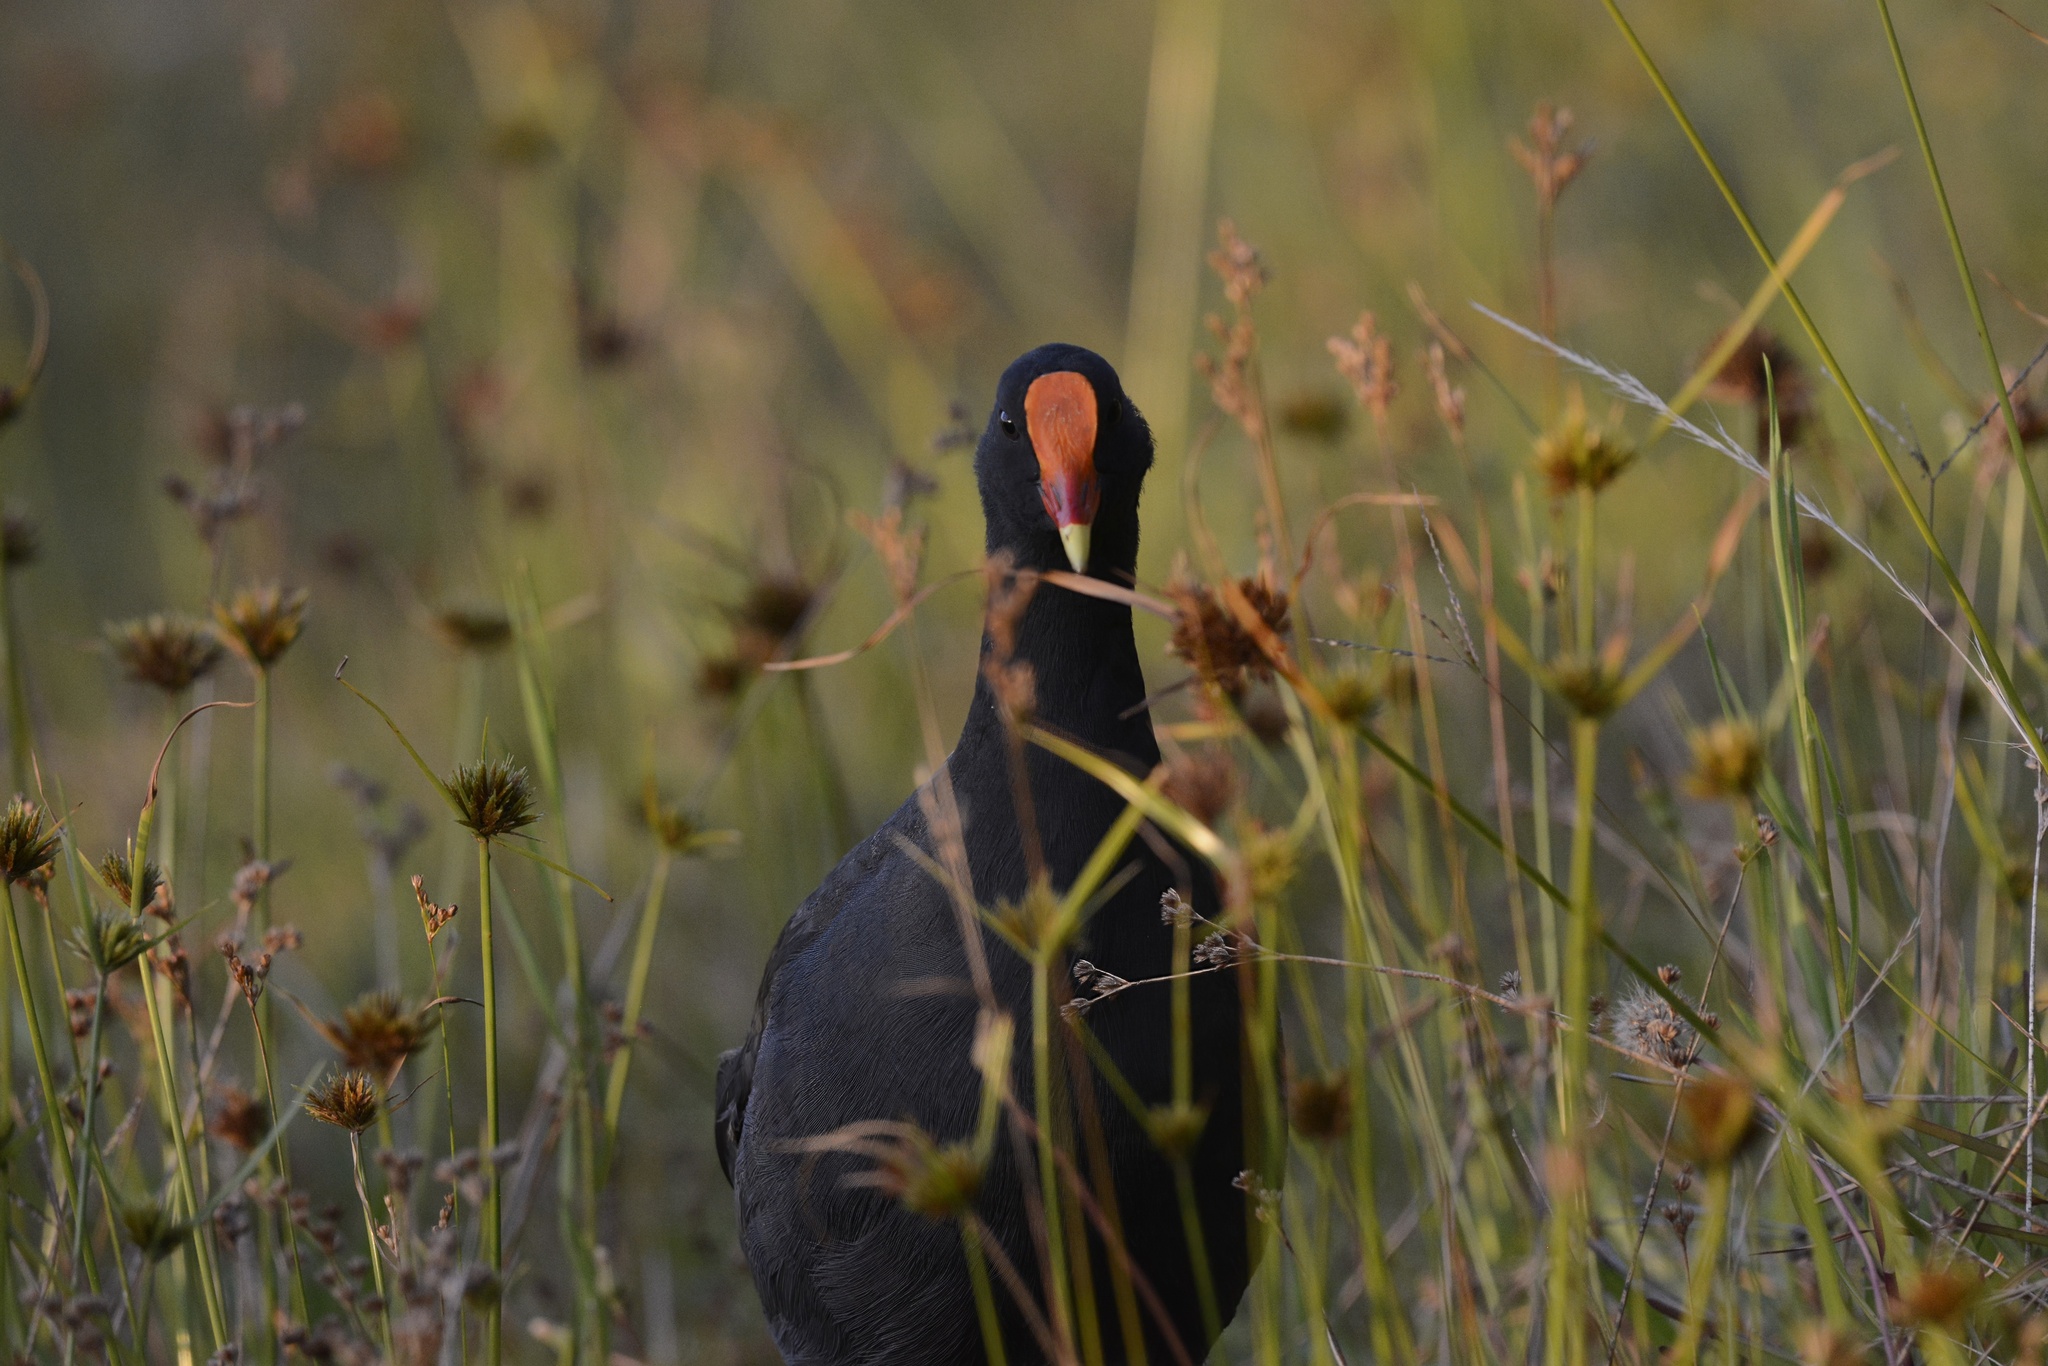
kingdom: Animalia
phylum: Chordata
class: Aves
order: Gruiformes
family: Rallidae
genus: Gallinula
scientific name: Gallinula tenebrosa
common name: Dusky moorhen
